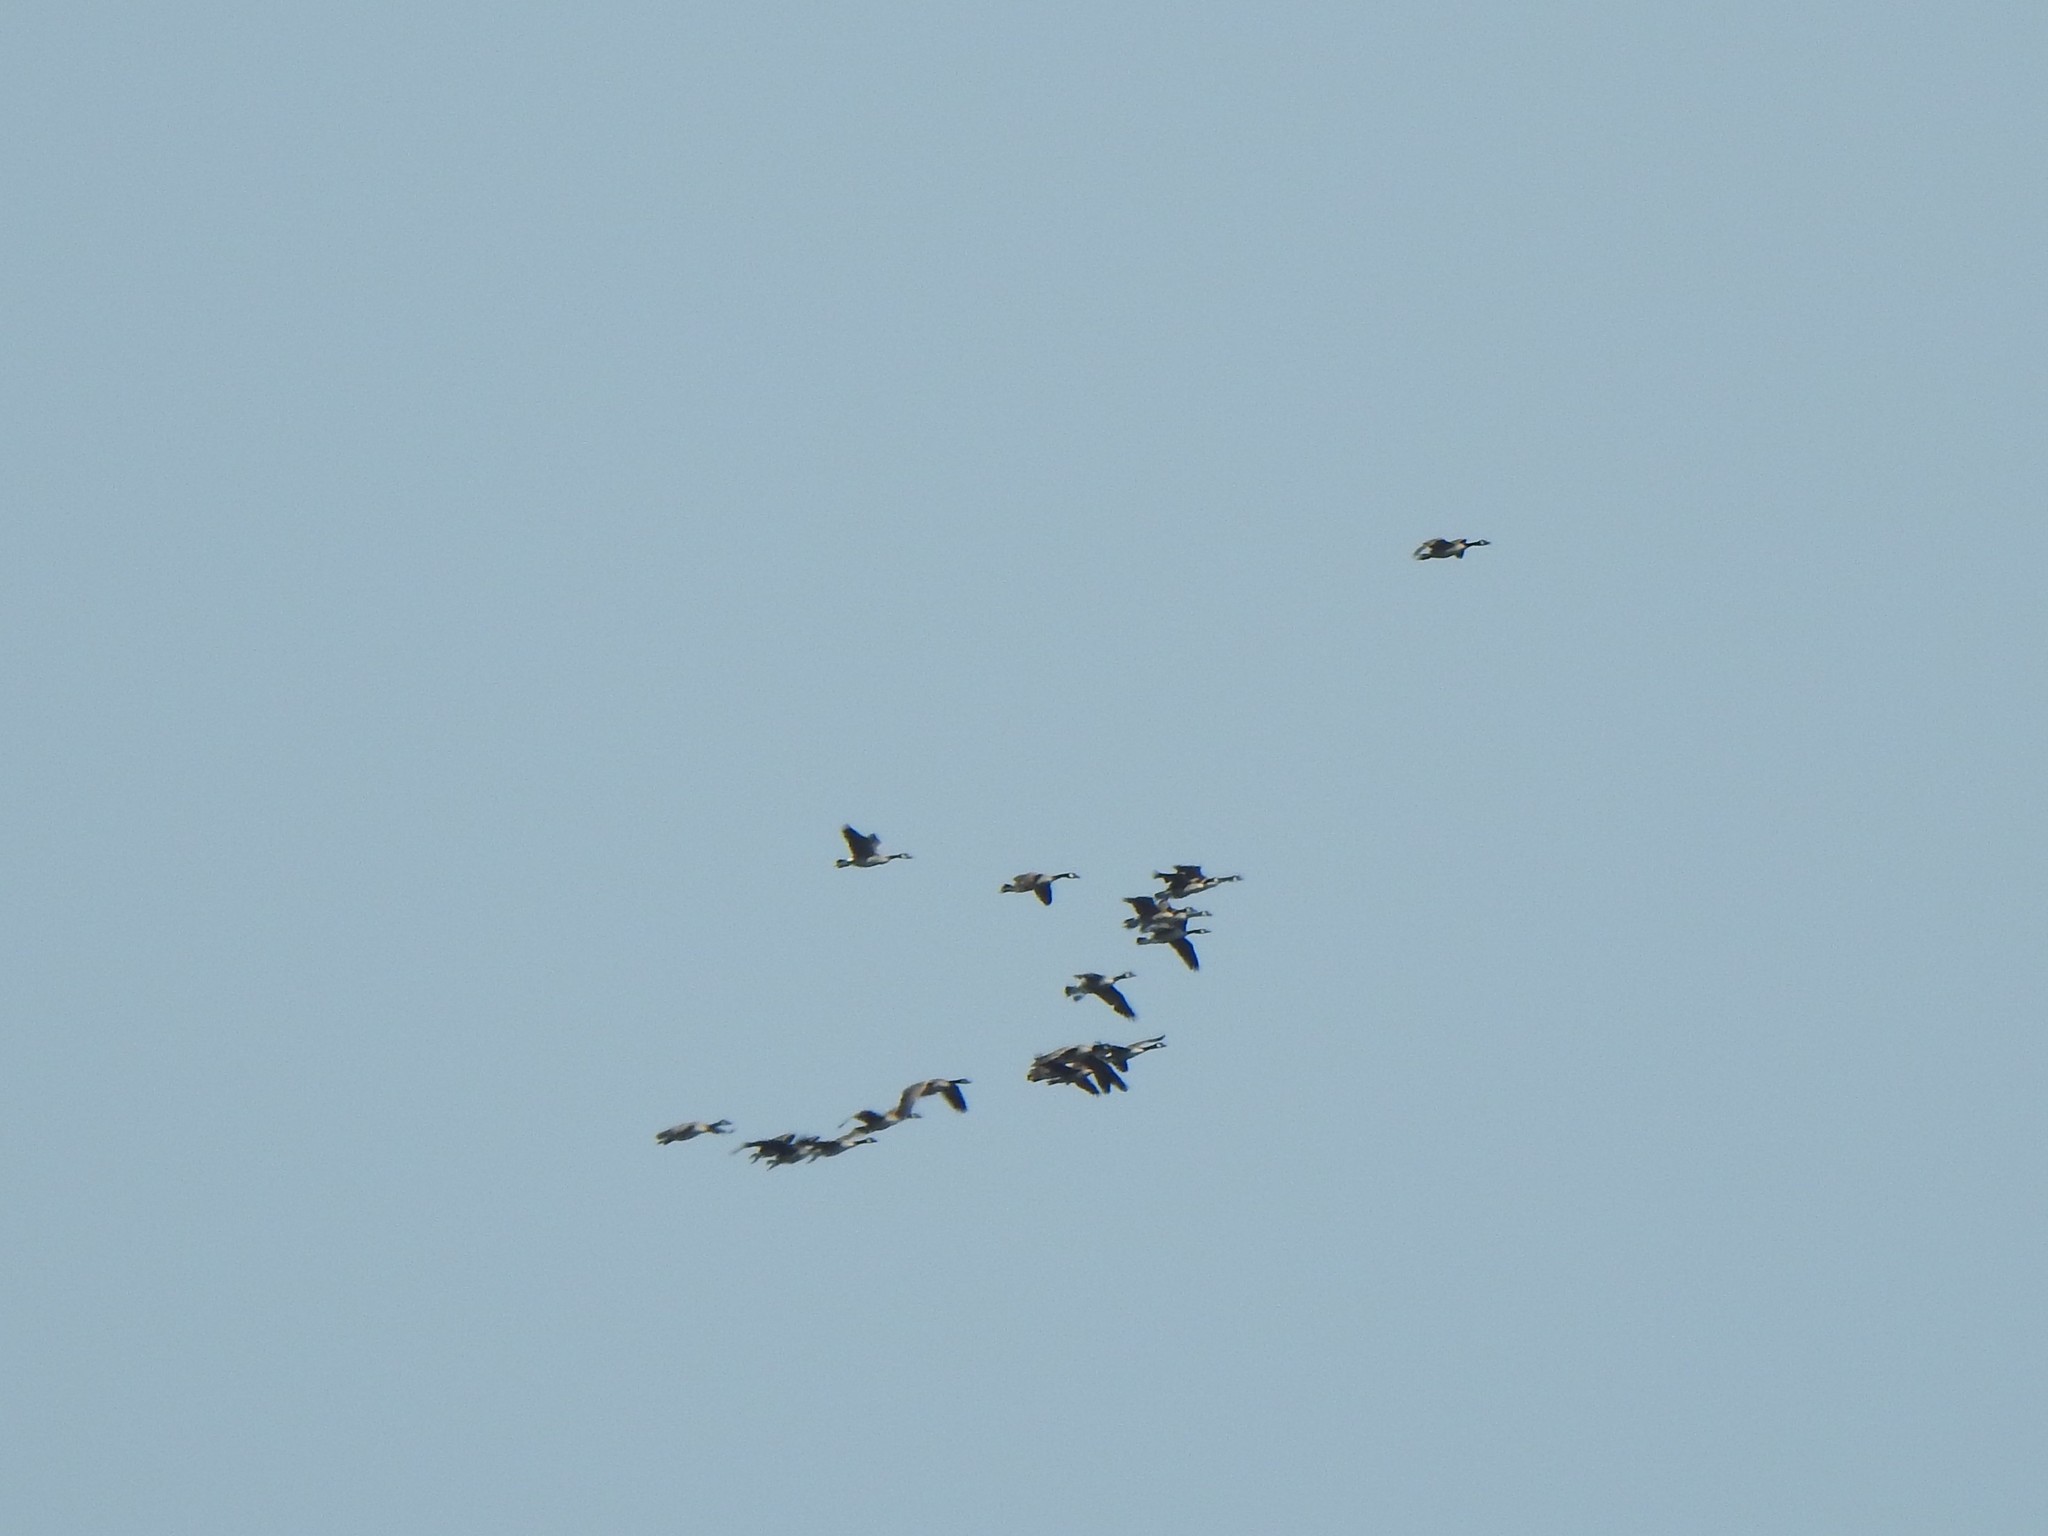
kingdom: Animalia
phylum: Chordata
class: Aves
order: Anseriformes
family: Anatidae
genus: Branta
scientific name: Branta canadensis
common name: Canada goose
